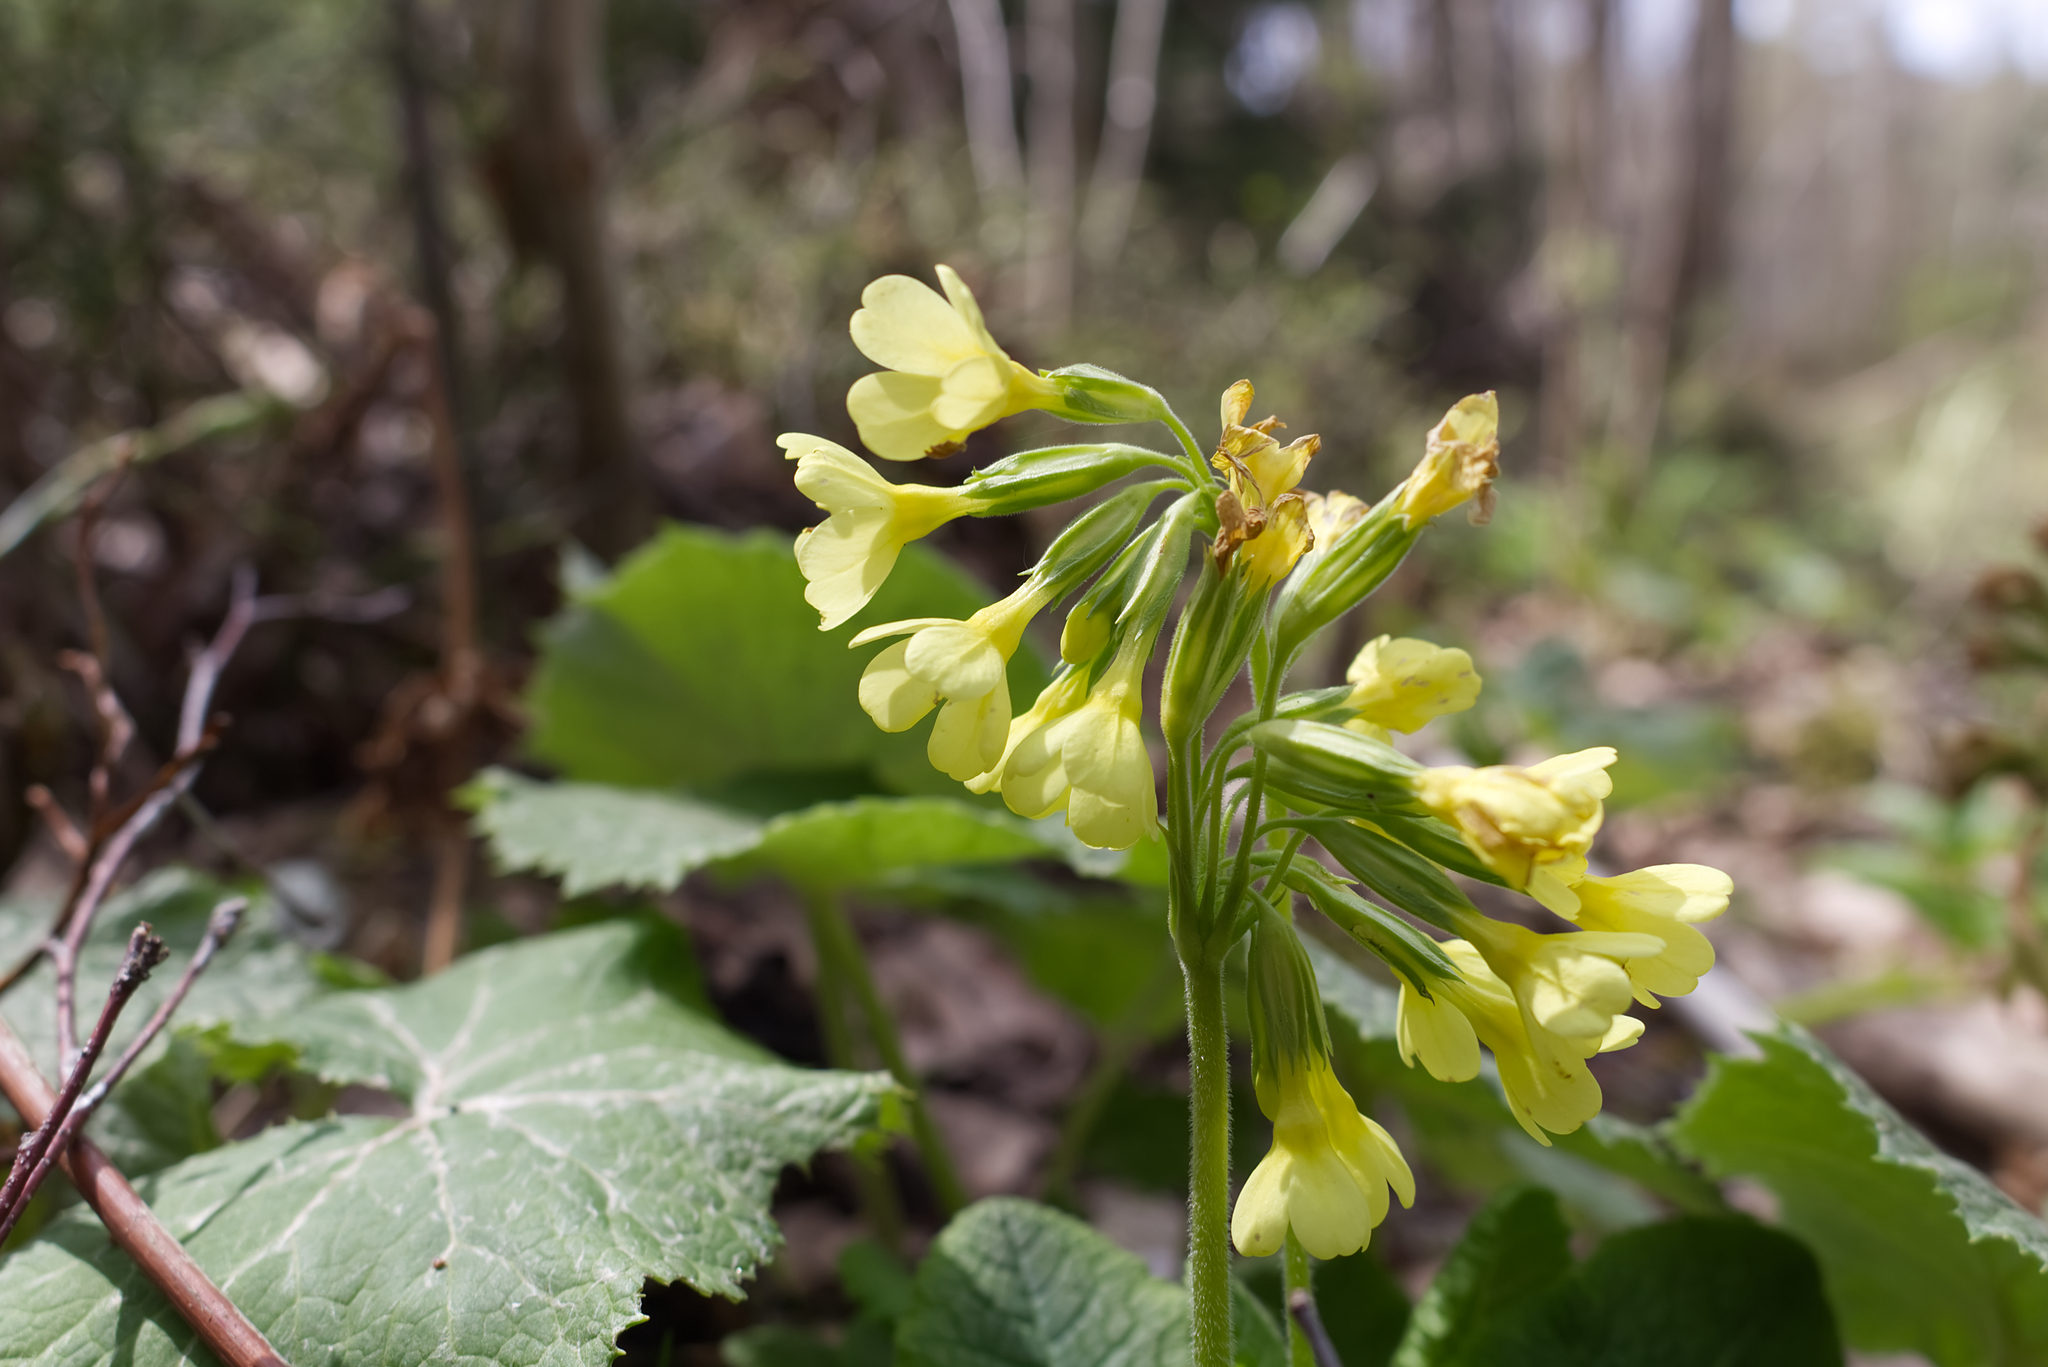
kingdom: Plantae
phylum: Tracheophyta
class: Magnoliopsida
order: Ericales
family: Primulaceae
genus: Primula
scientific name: Primula elatior
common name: Oxlip
